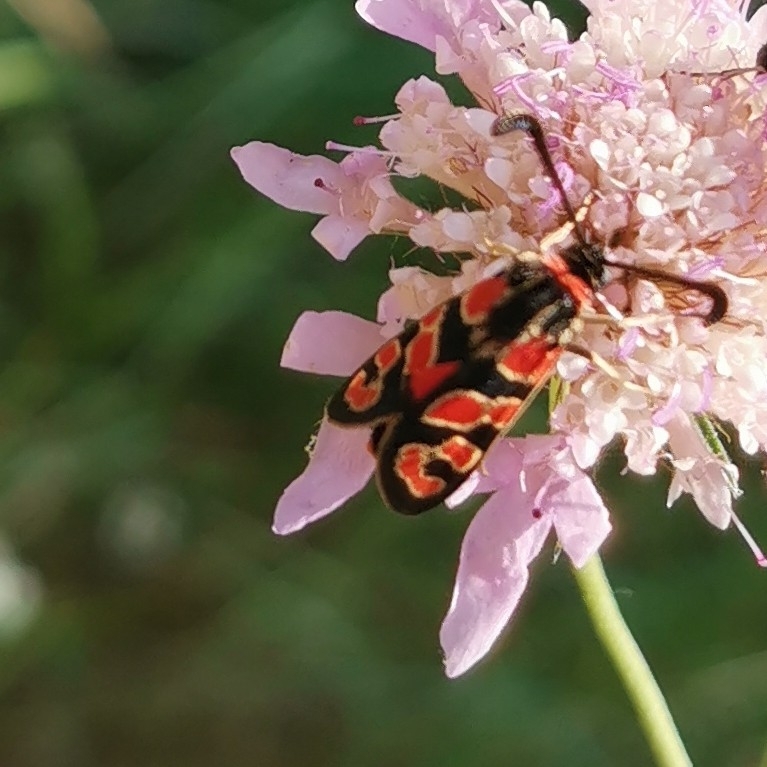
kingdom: Animalia
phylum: Arthropoda
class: Insecta
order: Lepidoptera
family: Zygaenidae
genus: Zygaena
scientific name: Zygaena fausta
